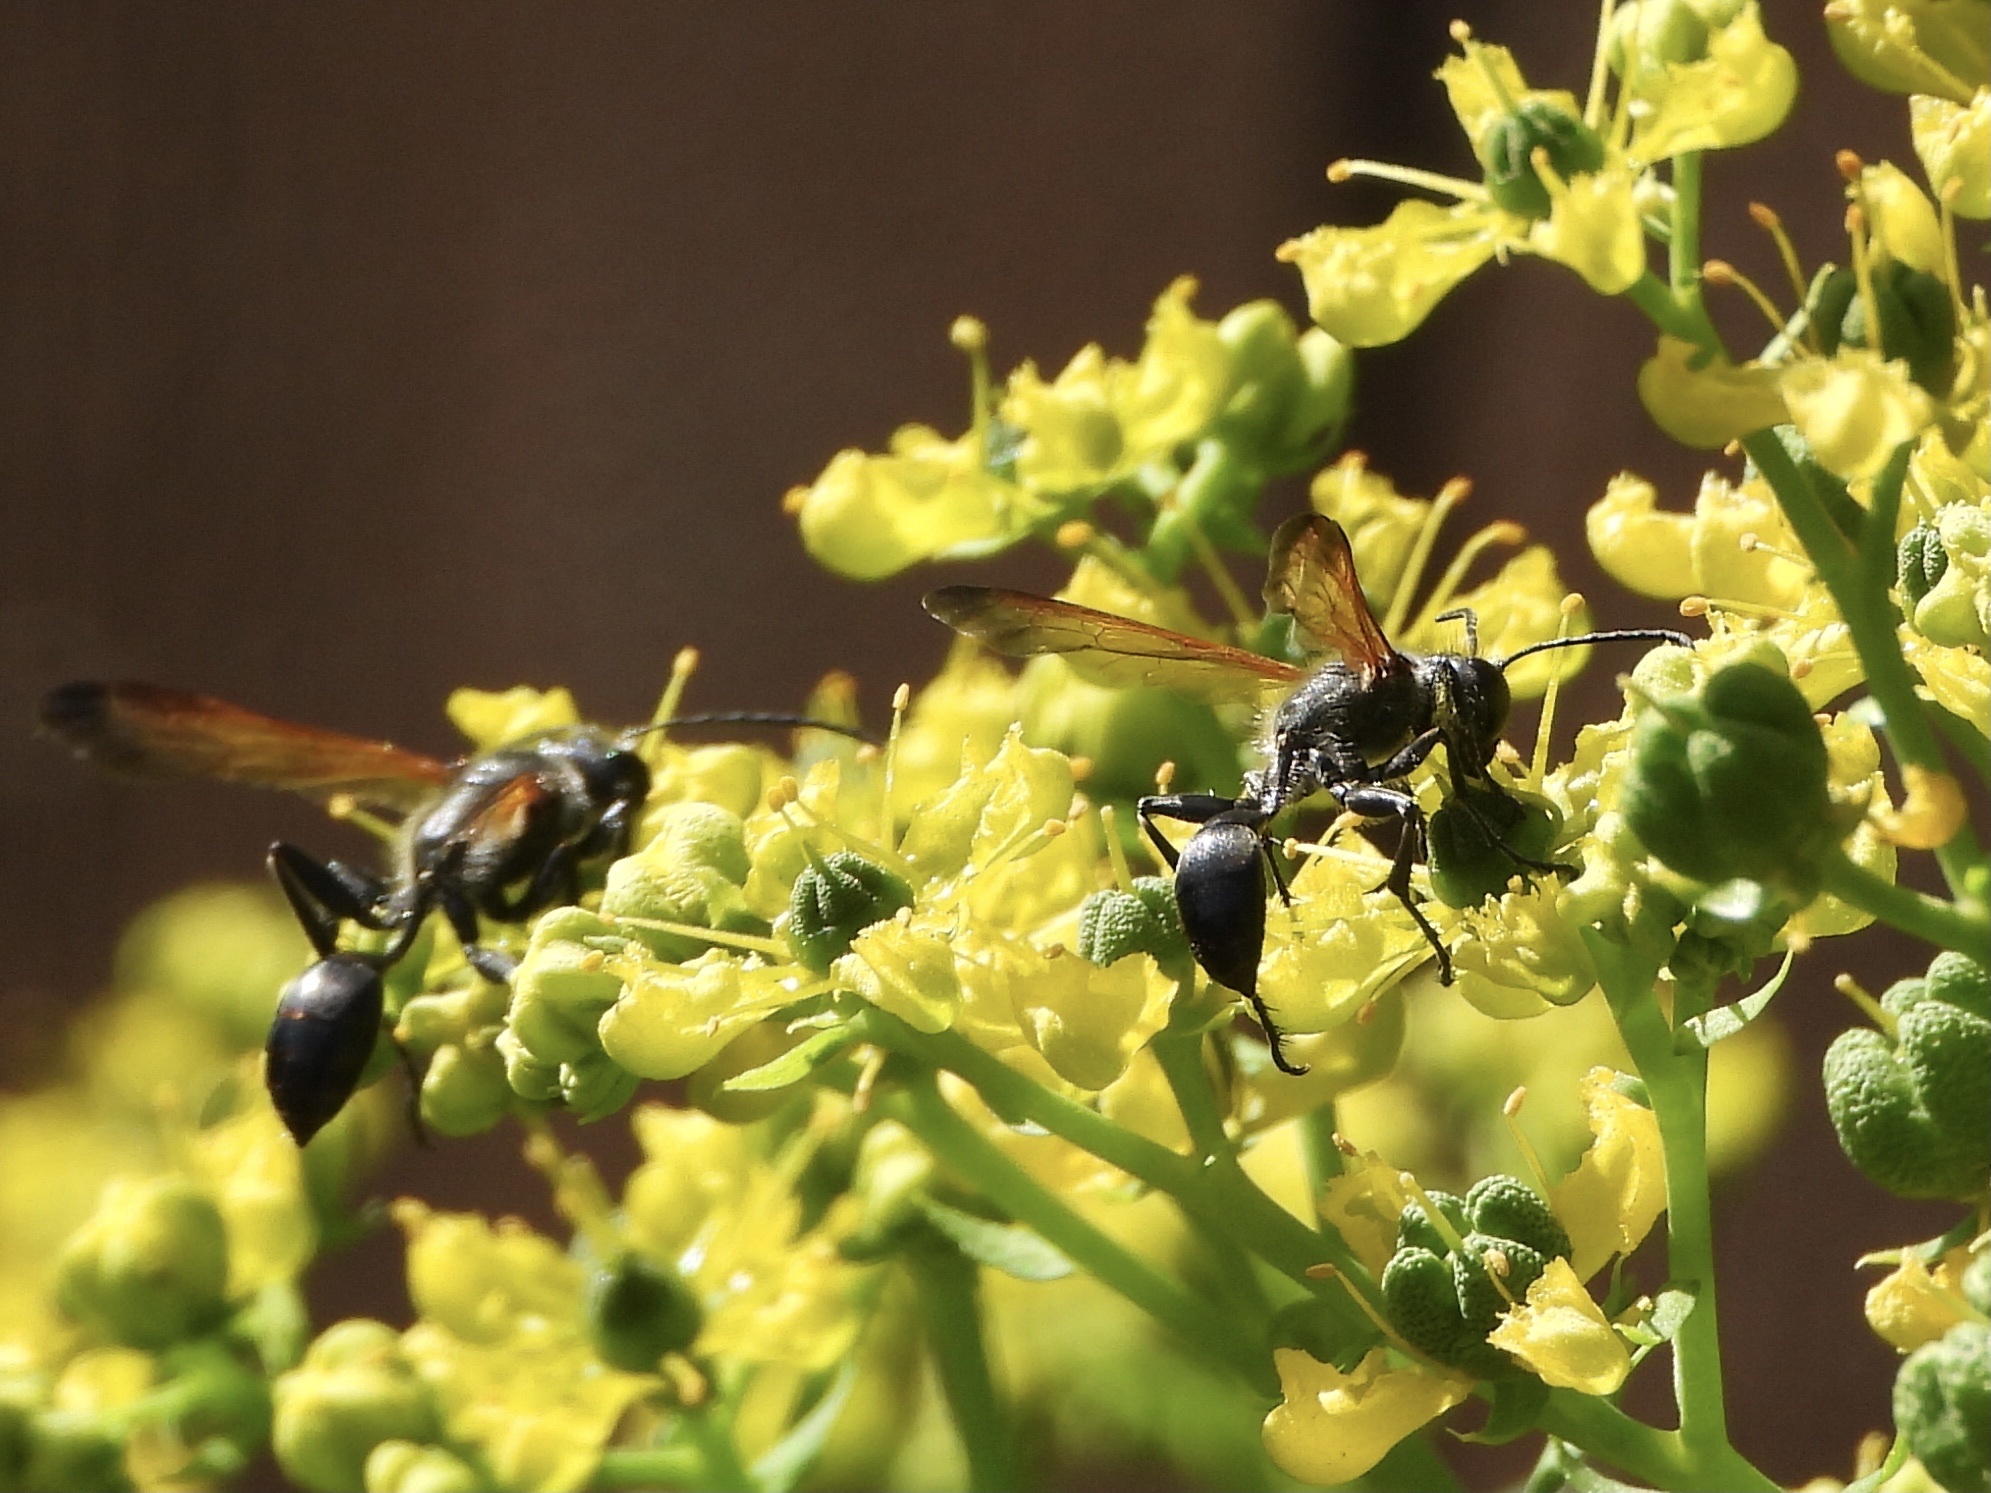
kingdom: Animalia
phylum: Arthropoda
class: Insecta
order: Hymenoptera
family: Sphecidae
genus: Isodontia
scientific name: Isodontia mexicana
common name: Mud dauber
